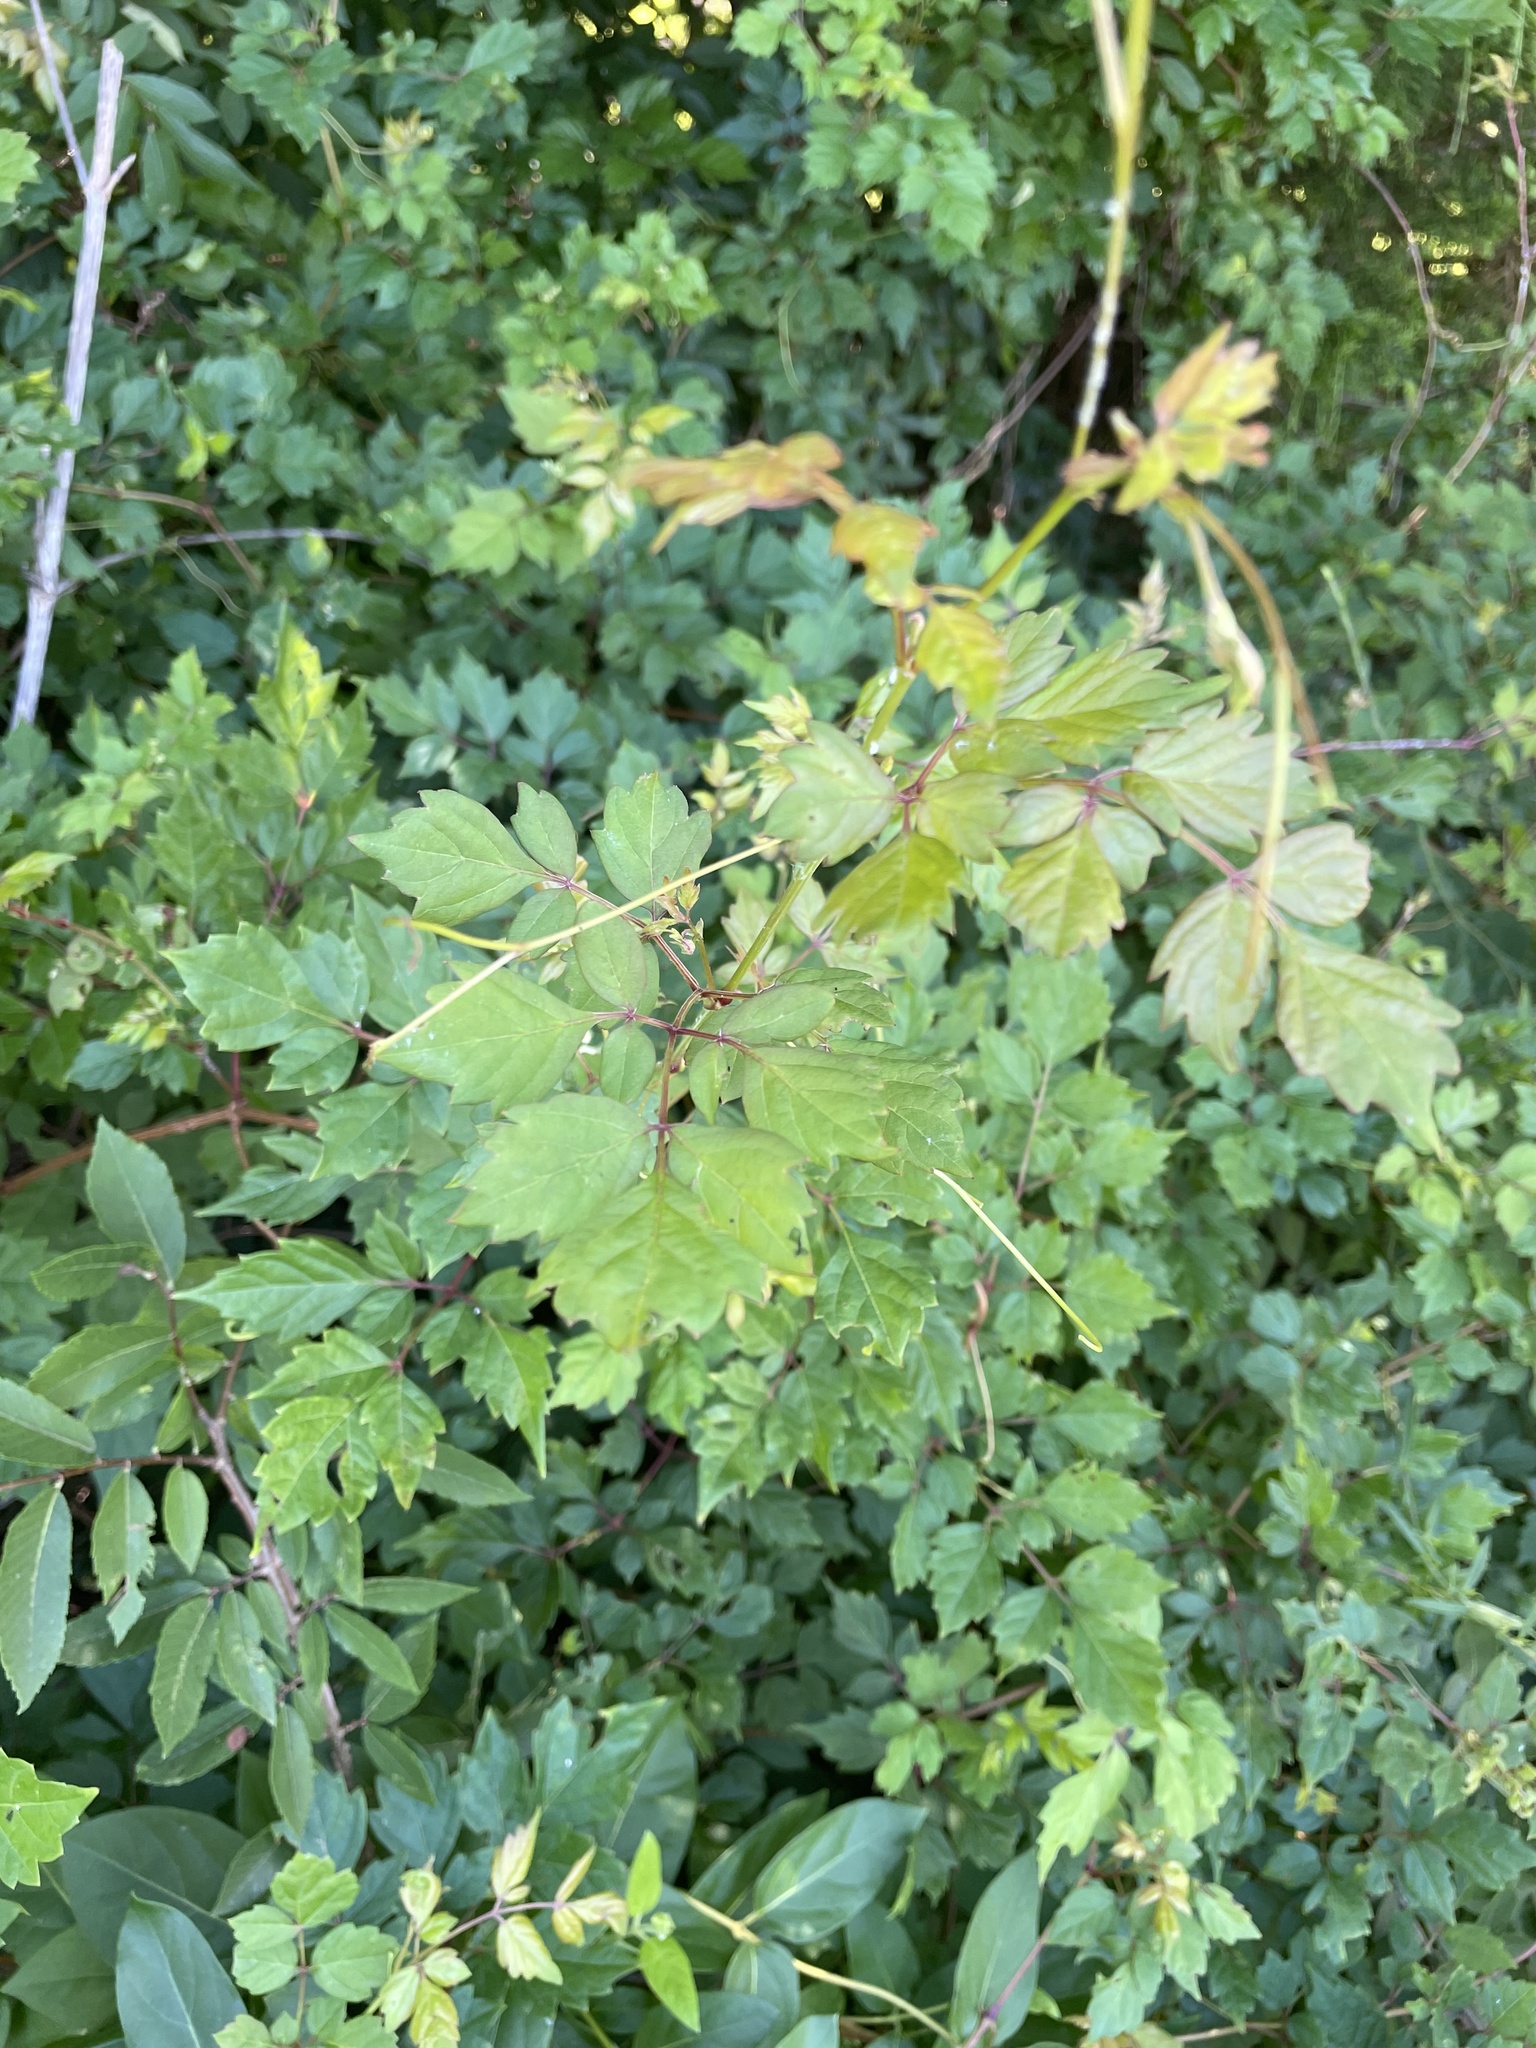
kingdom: Plantae
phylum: Tracheophyta
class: Magnoliopsida
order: Vitales
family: Vitaceae
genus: Nekemias
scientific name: Nekemias arborea
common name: Peppervine
